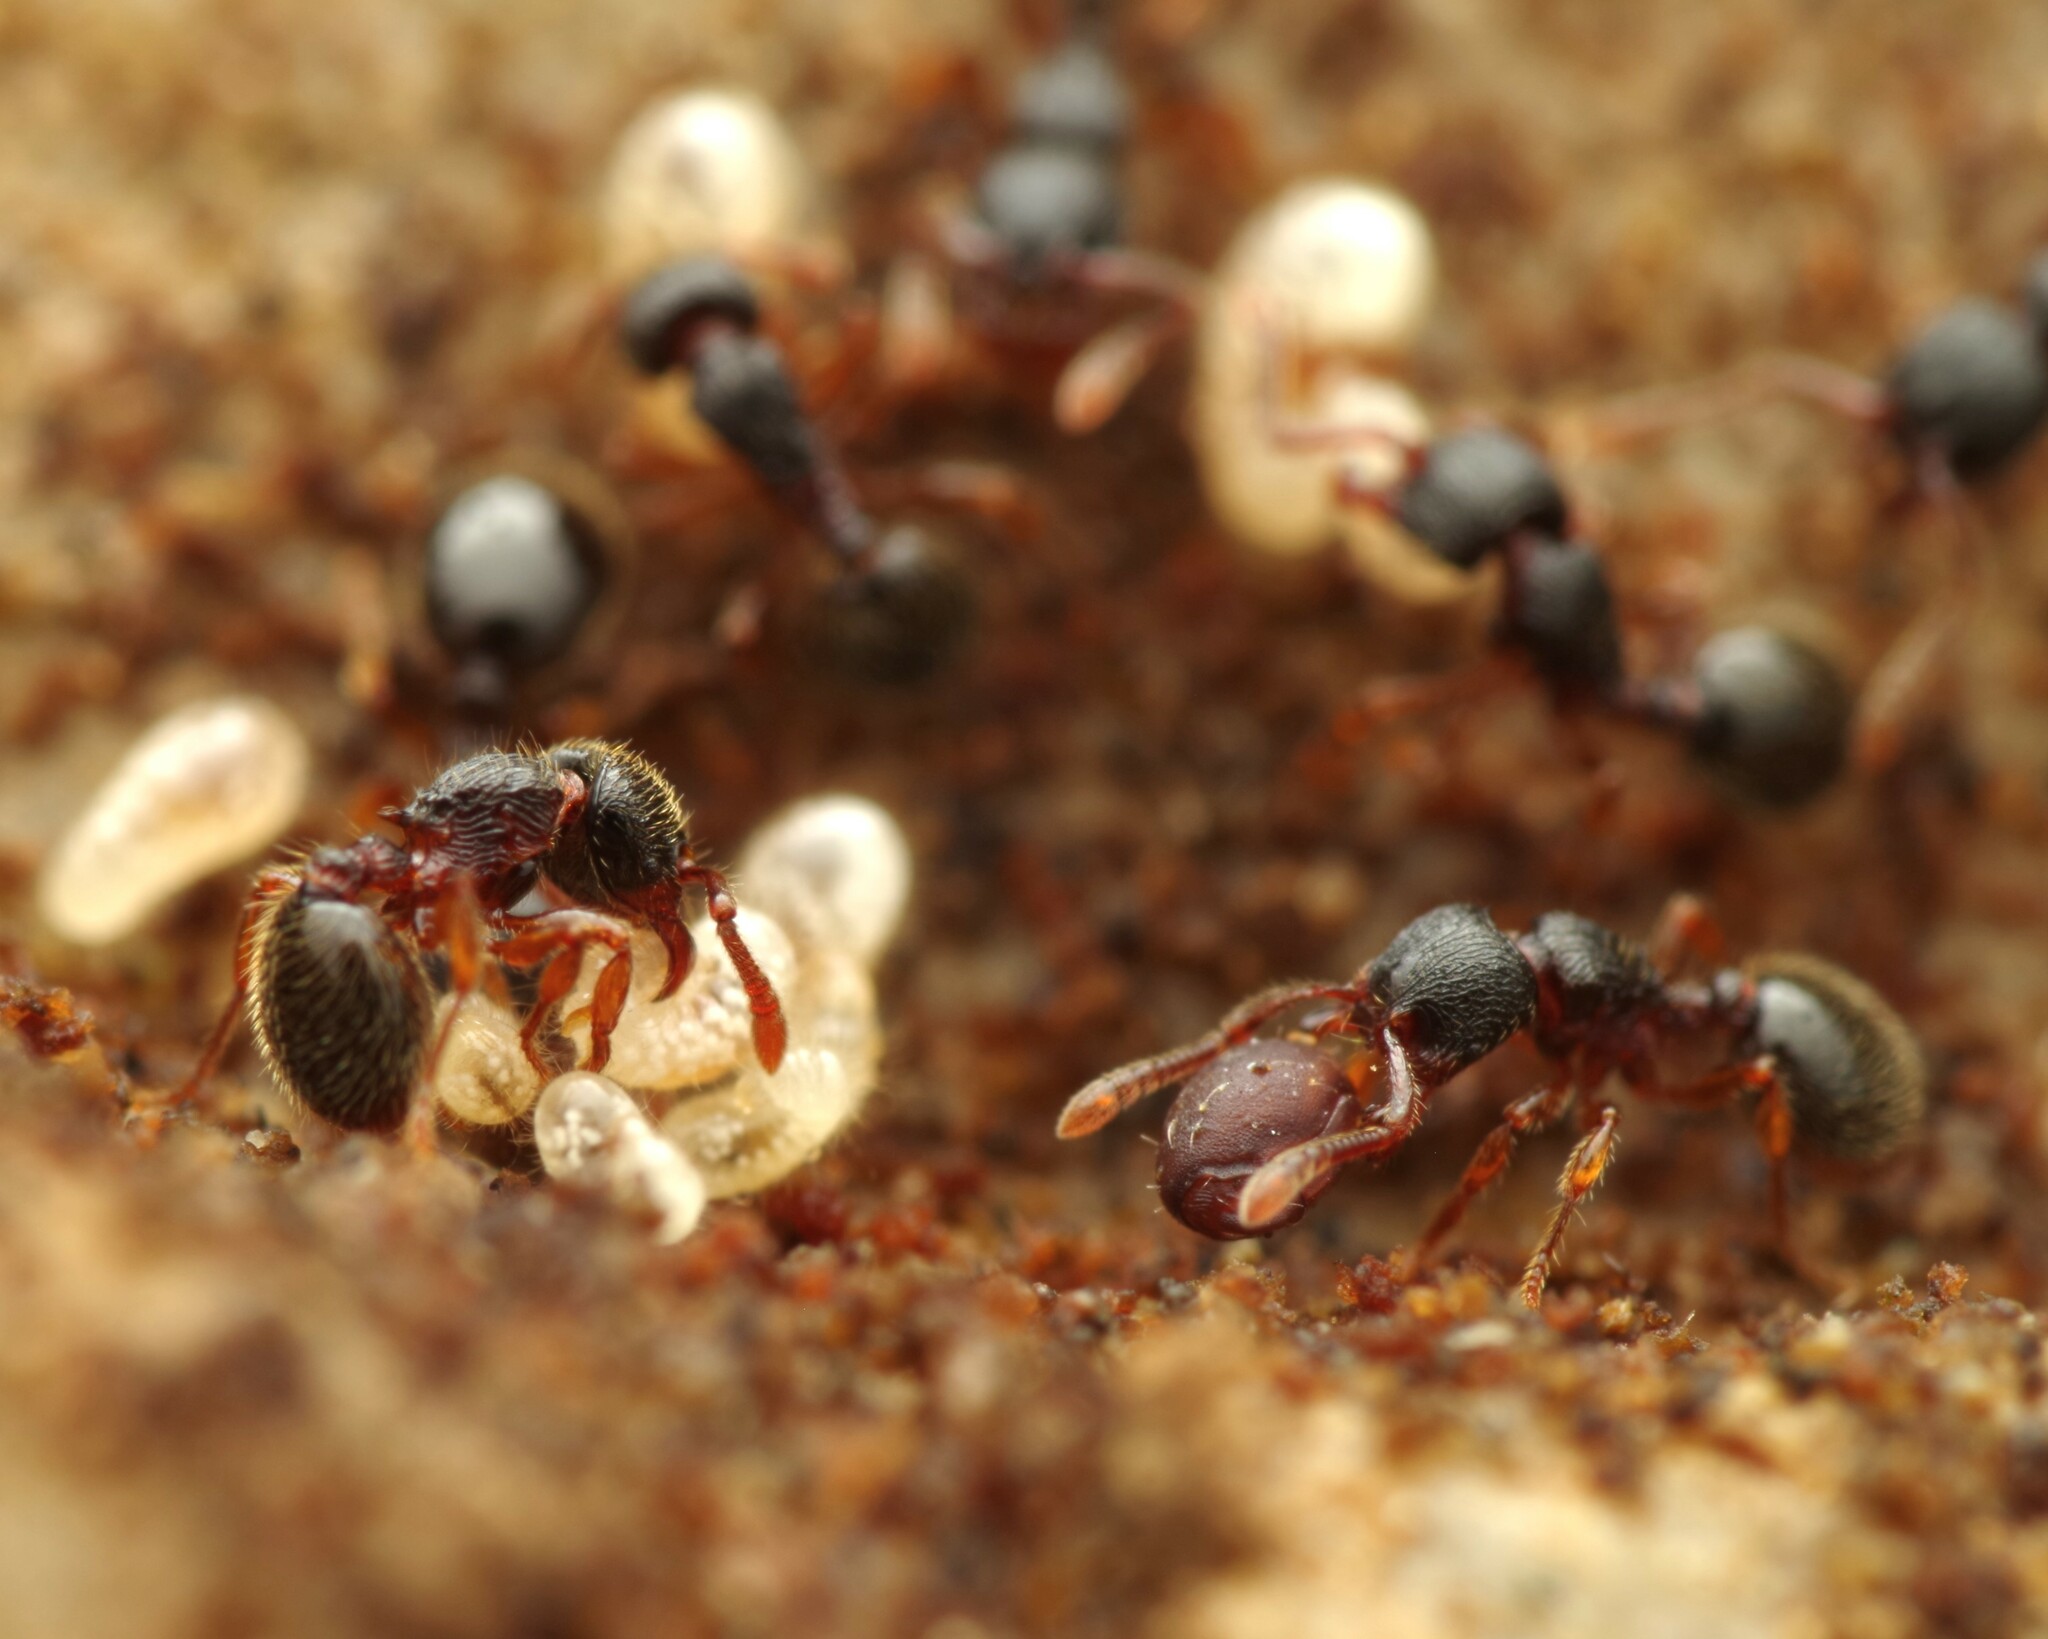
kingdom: Animalia
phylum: Arthropoda
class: Insecta
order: Hymenoptera
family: Formicidae
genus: Myrmecina
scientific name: Myrmecina graminicola
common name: Grass ant
